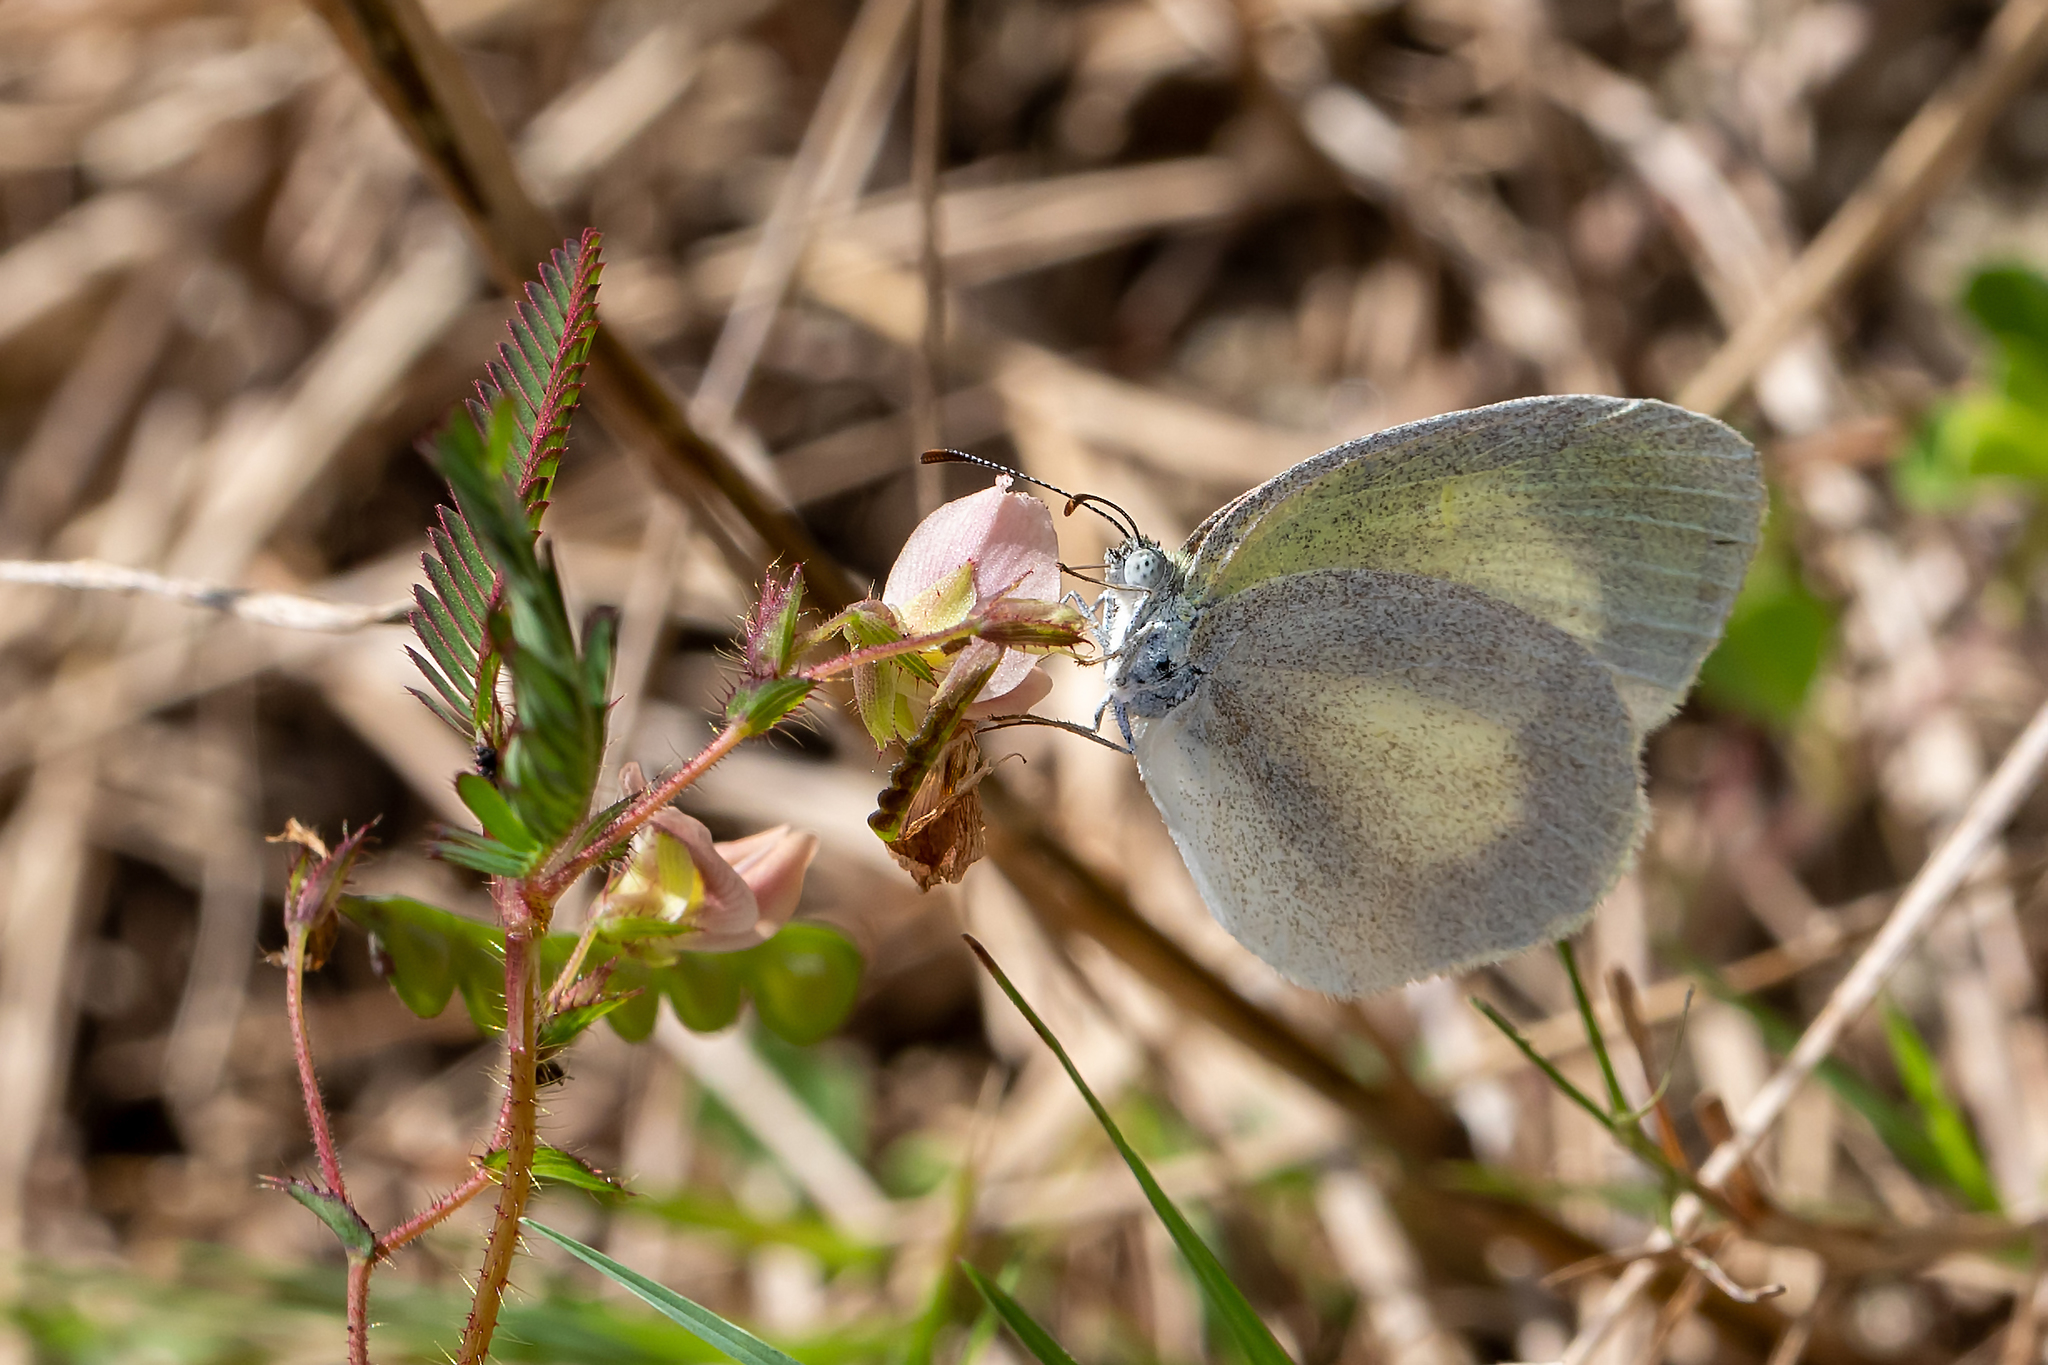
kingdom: Animalia
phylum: Arthropoda
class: Insecta
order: Lepidoptera
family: Pieridae
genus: Eurema
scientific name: Eurema daira
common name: Barred sulphur
